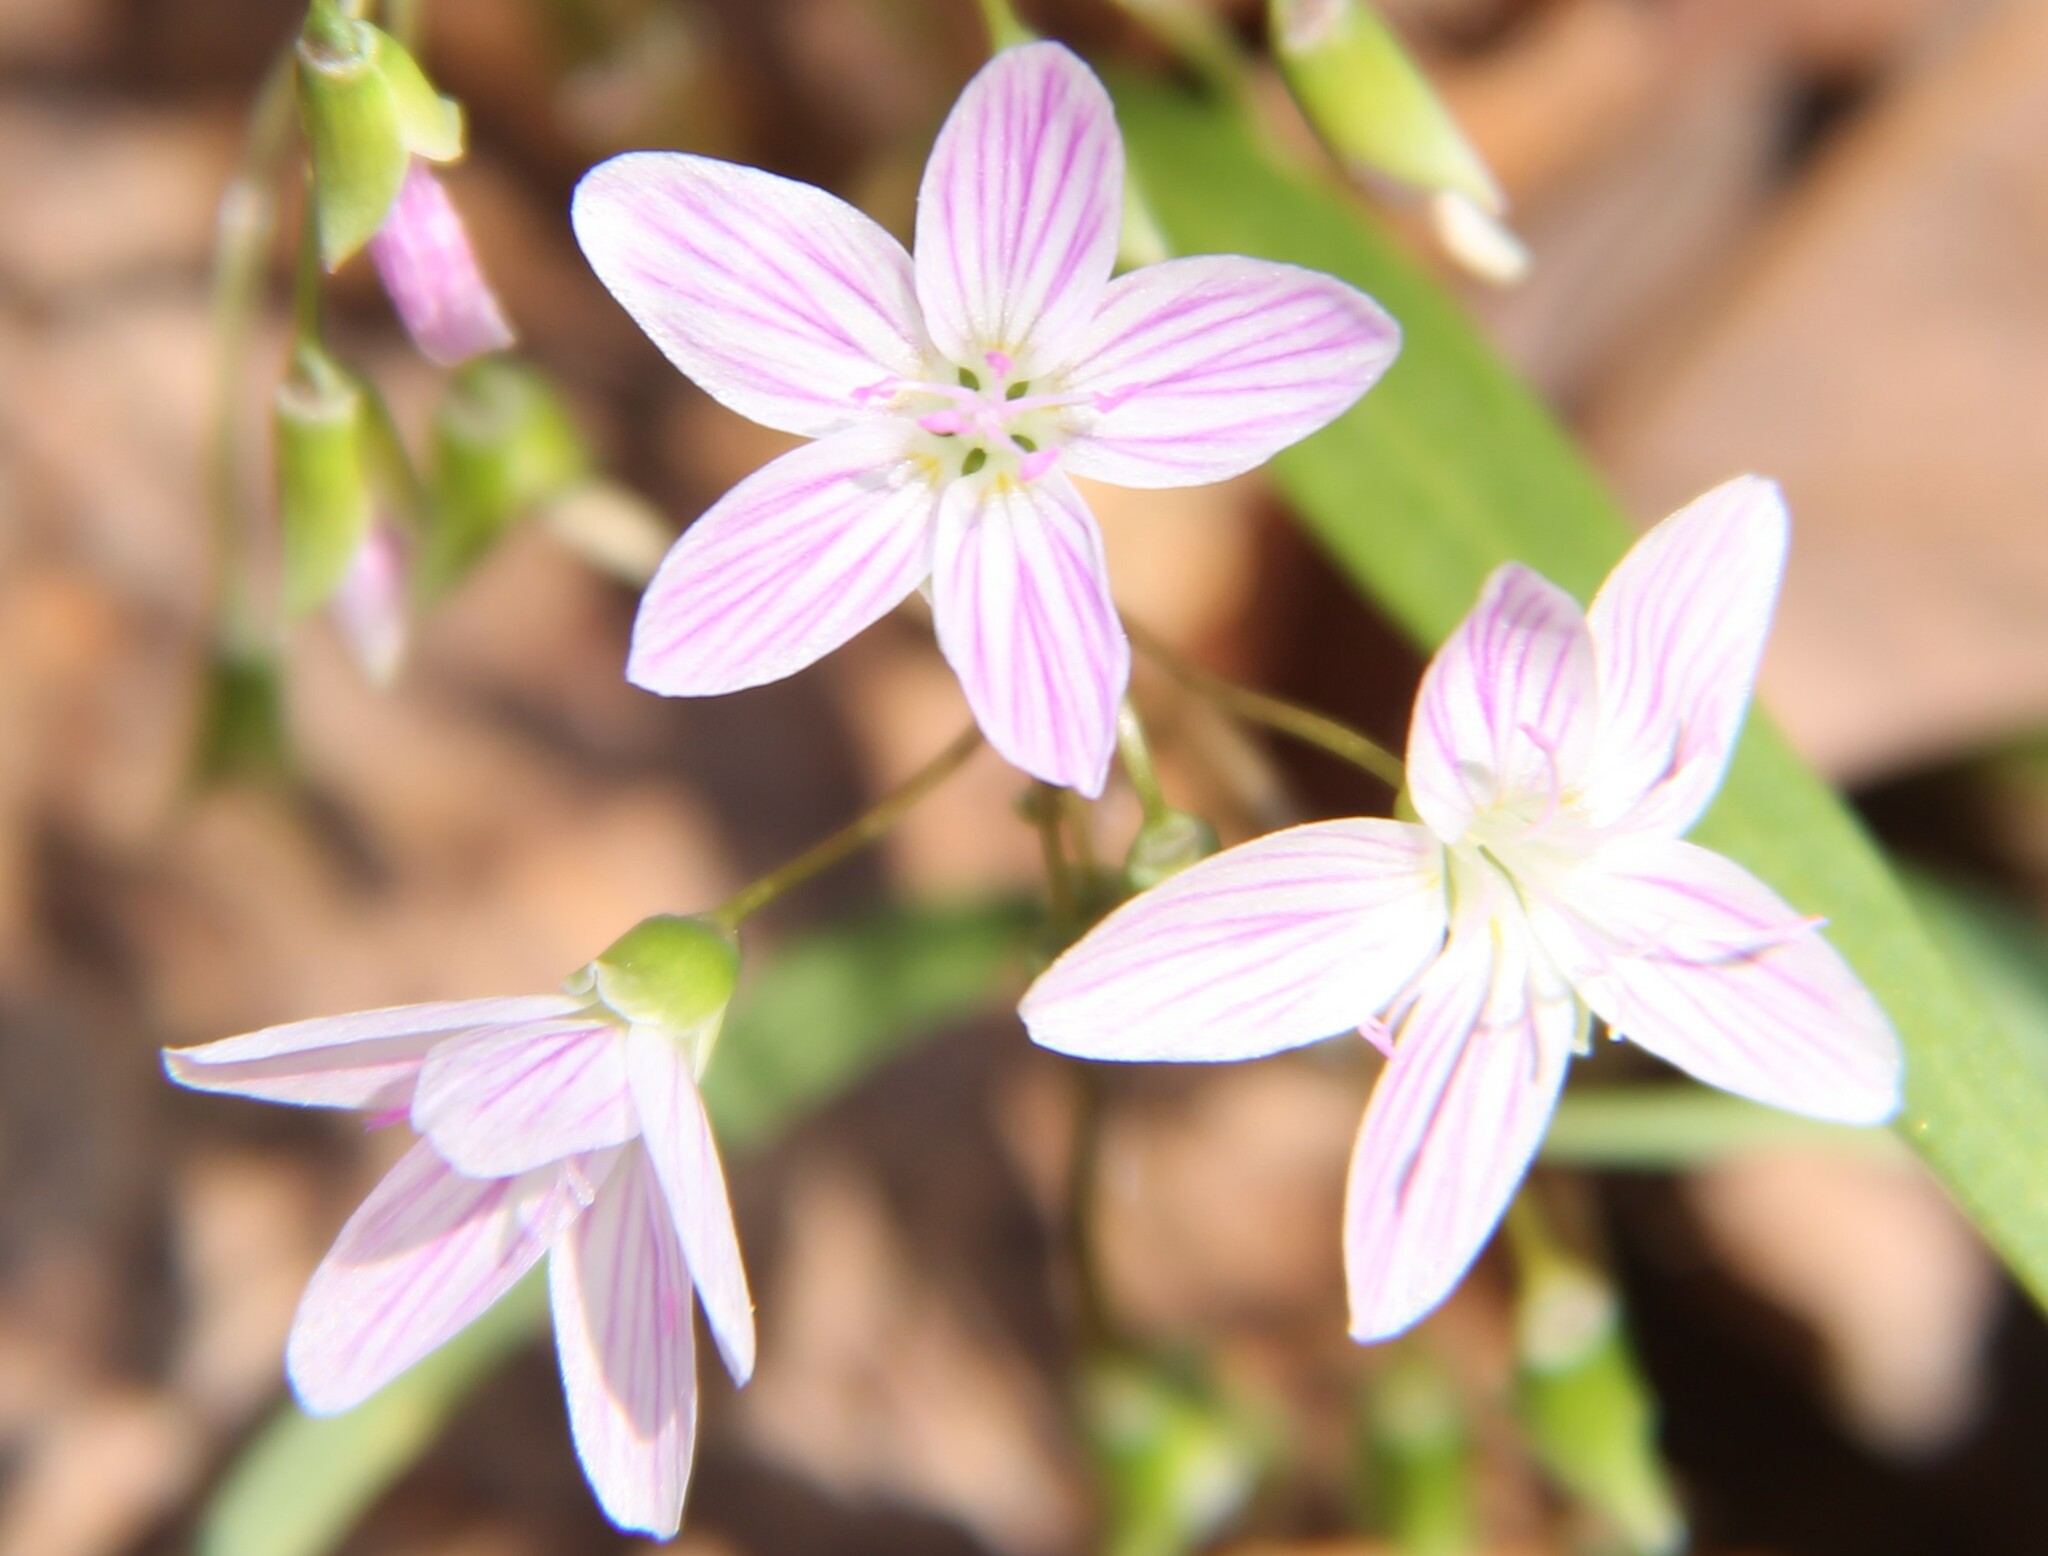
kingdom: Plantae
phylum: Tracheophyta
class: Magnoliopsida
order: Caryophyllales
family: Montiaceae
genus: Claytonia
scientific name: Claytonia virginica
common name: Virginia springbeauty
